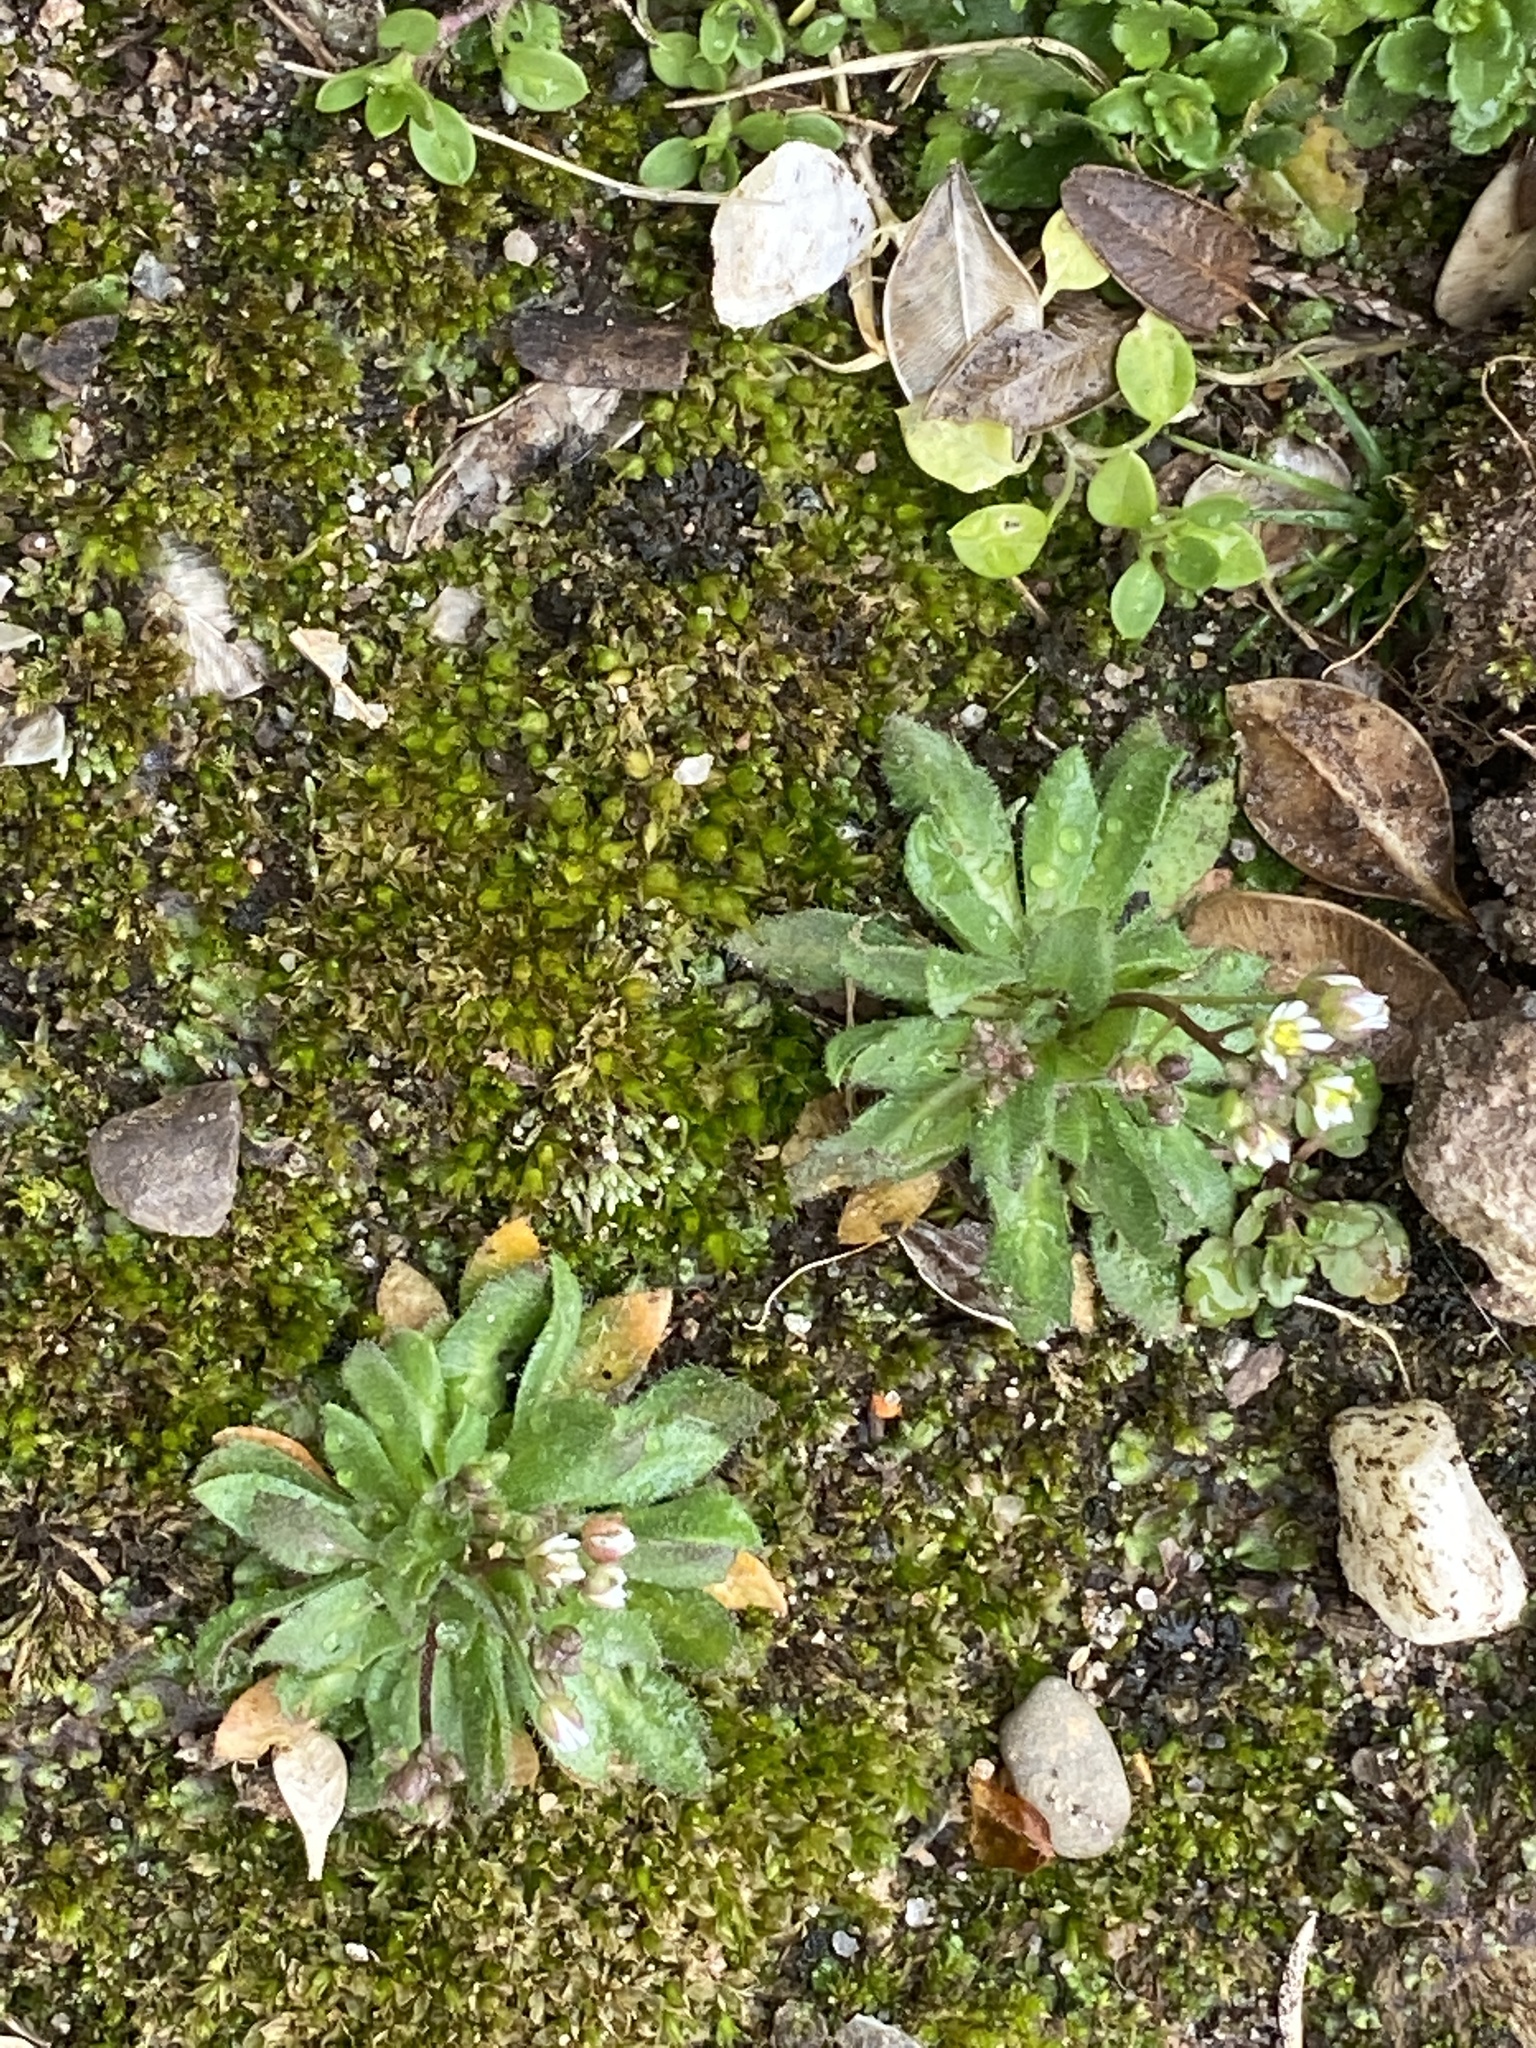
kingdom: Plantae
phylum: Tracheophyta
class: Magnoliopsida
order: Brassicales
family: Brassicaceae
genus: Draba
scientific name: Draba verna
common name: Spring draba
